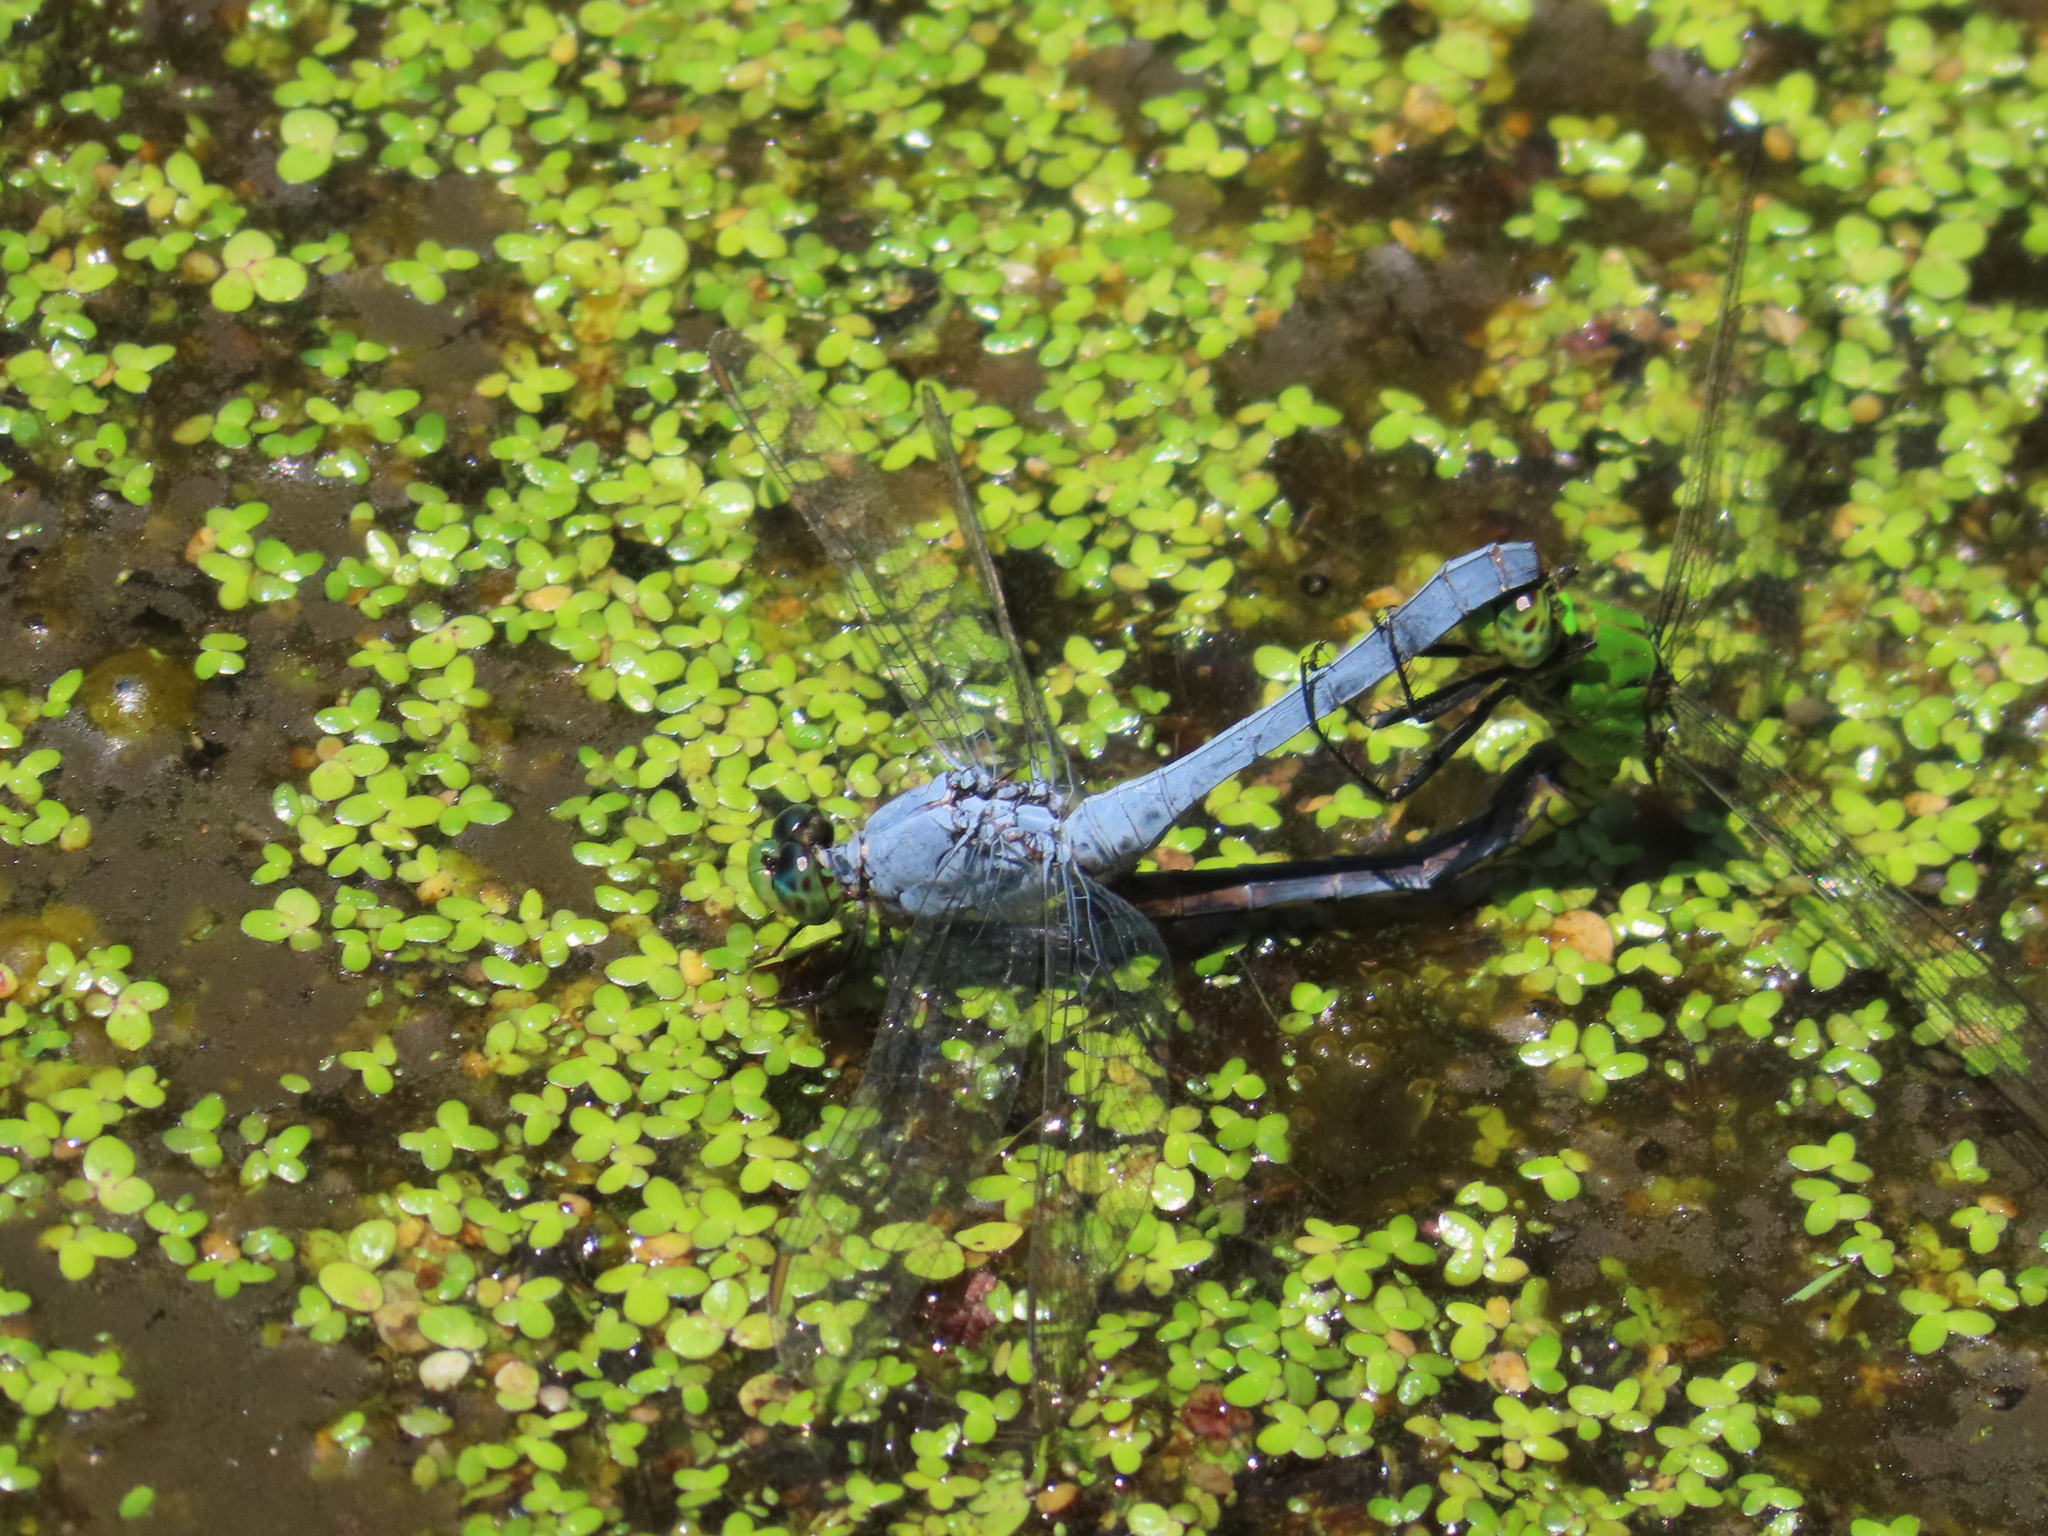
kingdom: Animalia
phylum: Arthropoda
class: Insecta
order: Odonata
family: Libellulidae
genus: Erythemis
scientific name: Erythemis simplicicollis
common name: Eastern pondhawk
